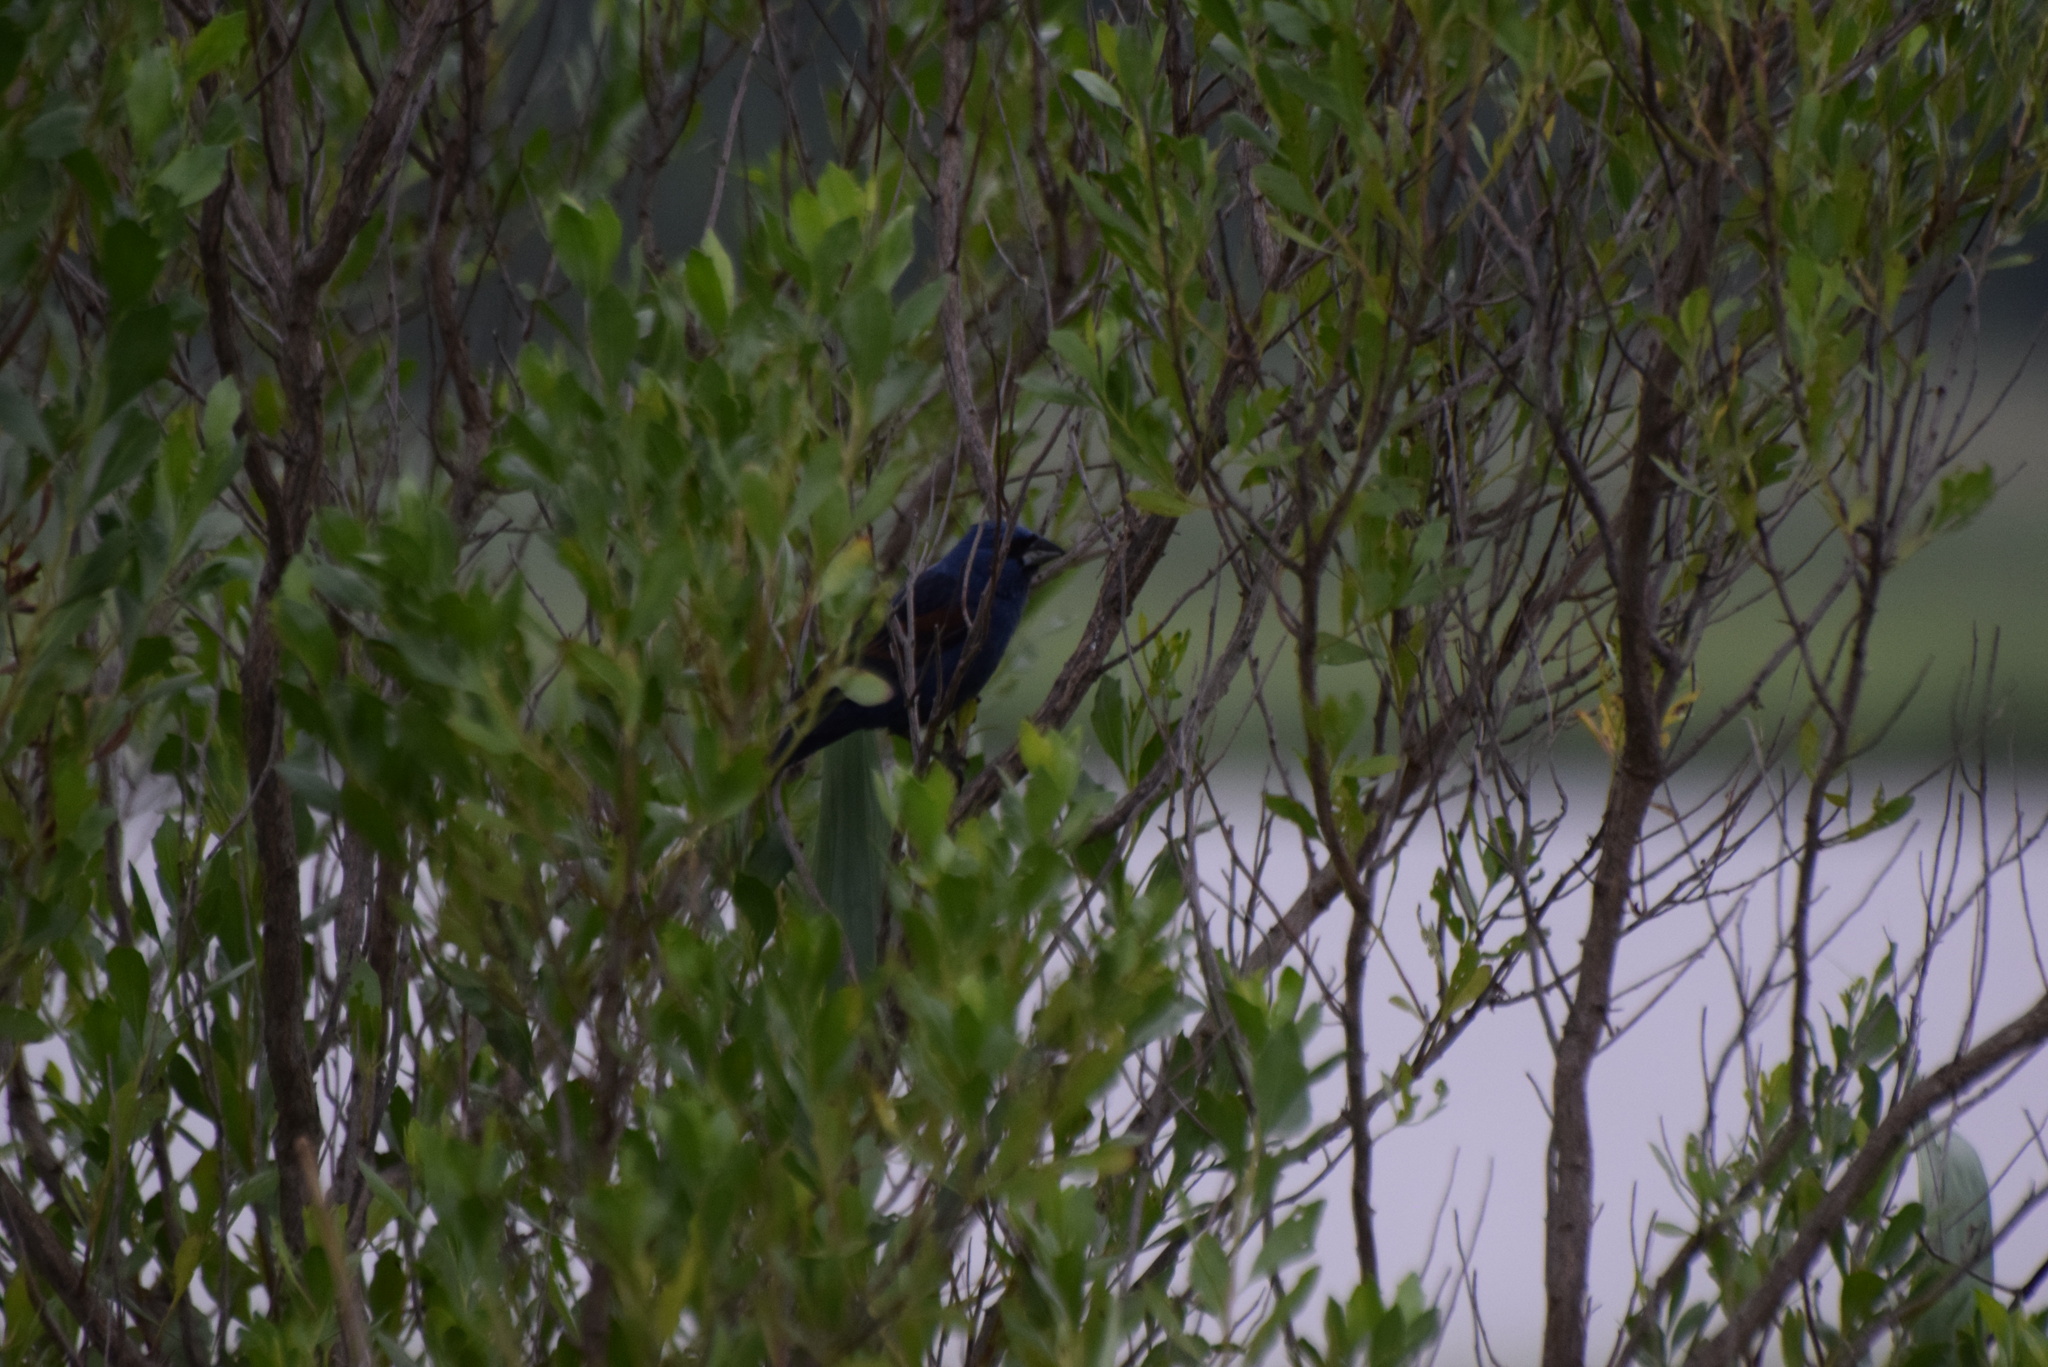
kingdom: Animalia
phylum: Chordata
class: Aves
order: Passeriformes
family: Cardinalidae
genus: Passerina
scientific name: Passerina caerulea
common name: Blue grosbeak
